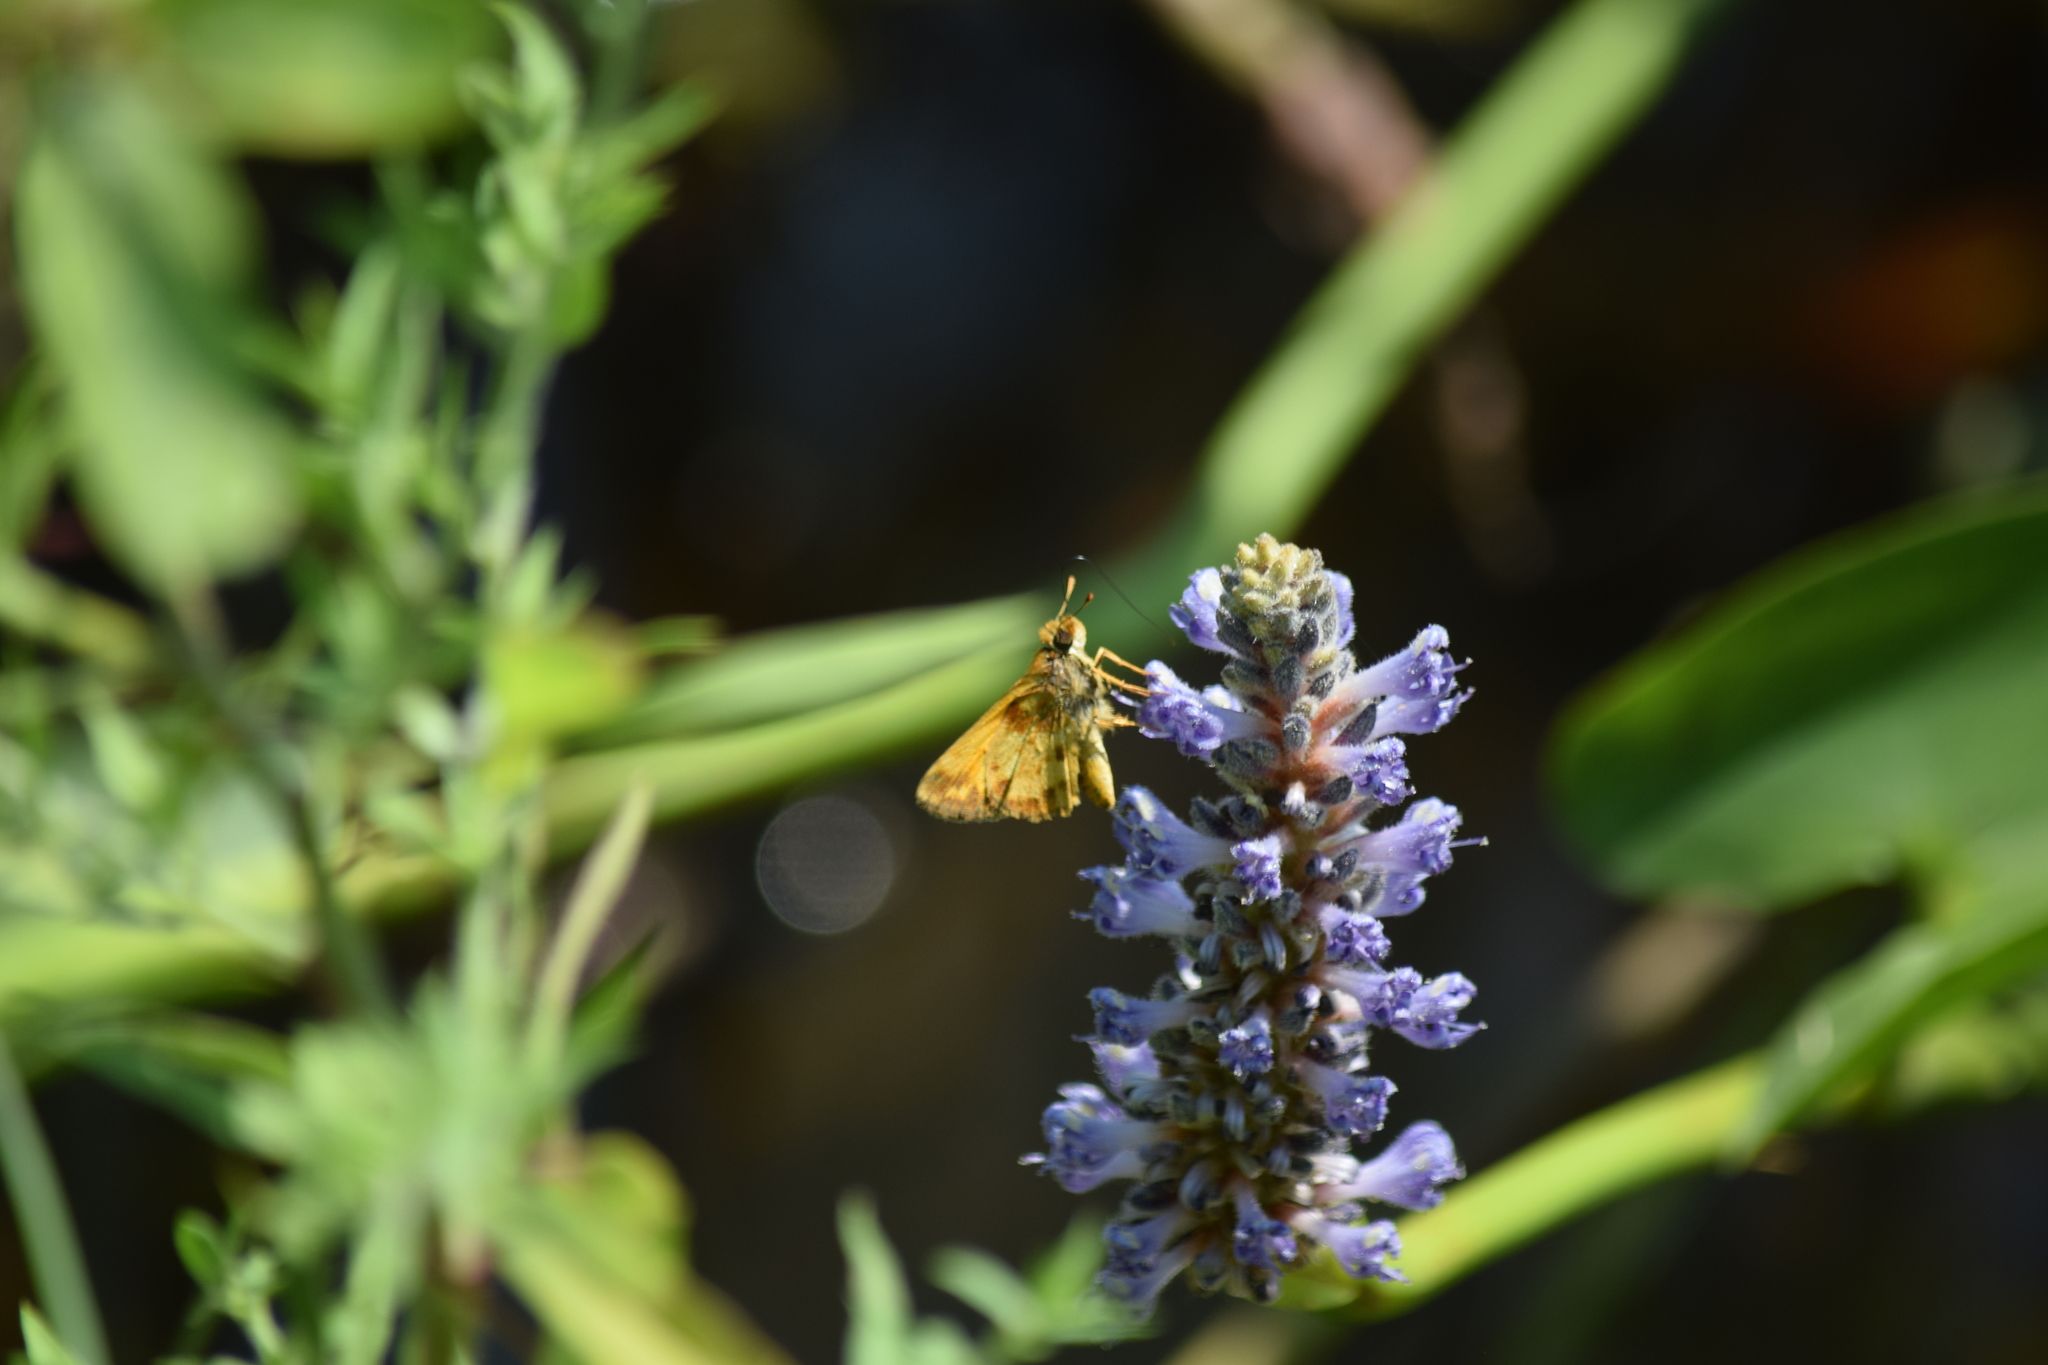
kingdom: Animalia
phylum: Arthropoda
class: Insecta
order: Lepidoptera
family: Hesperiidae
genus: Lon
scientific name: Lon zabulon
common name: Zabulon skipper
